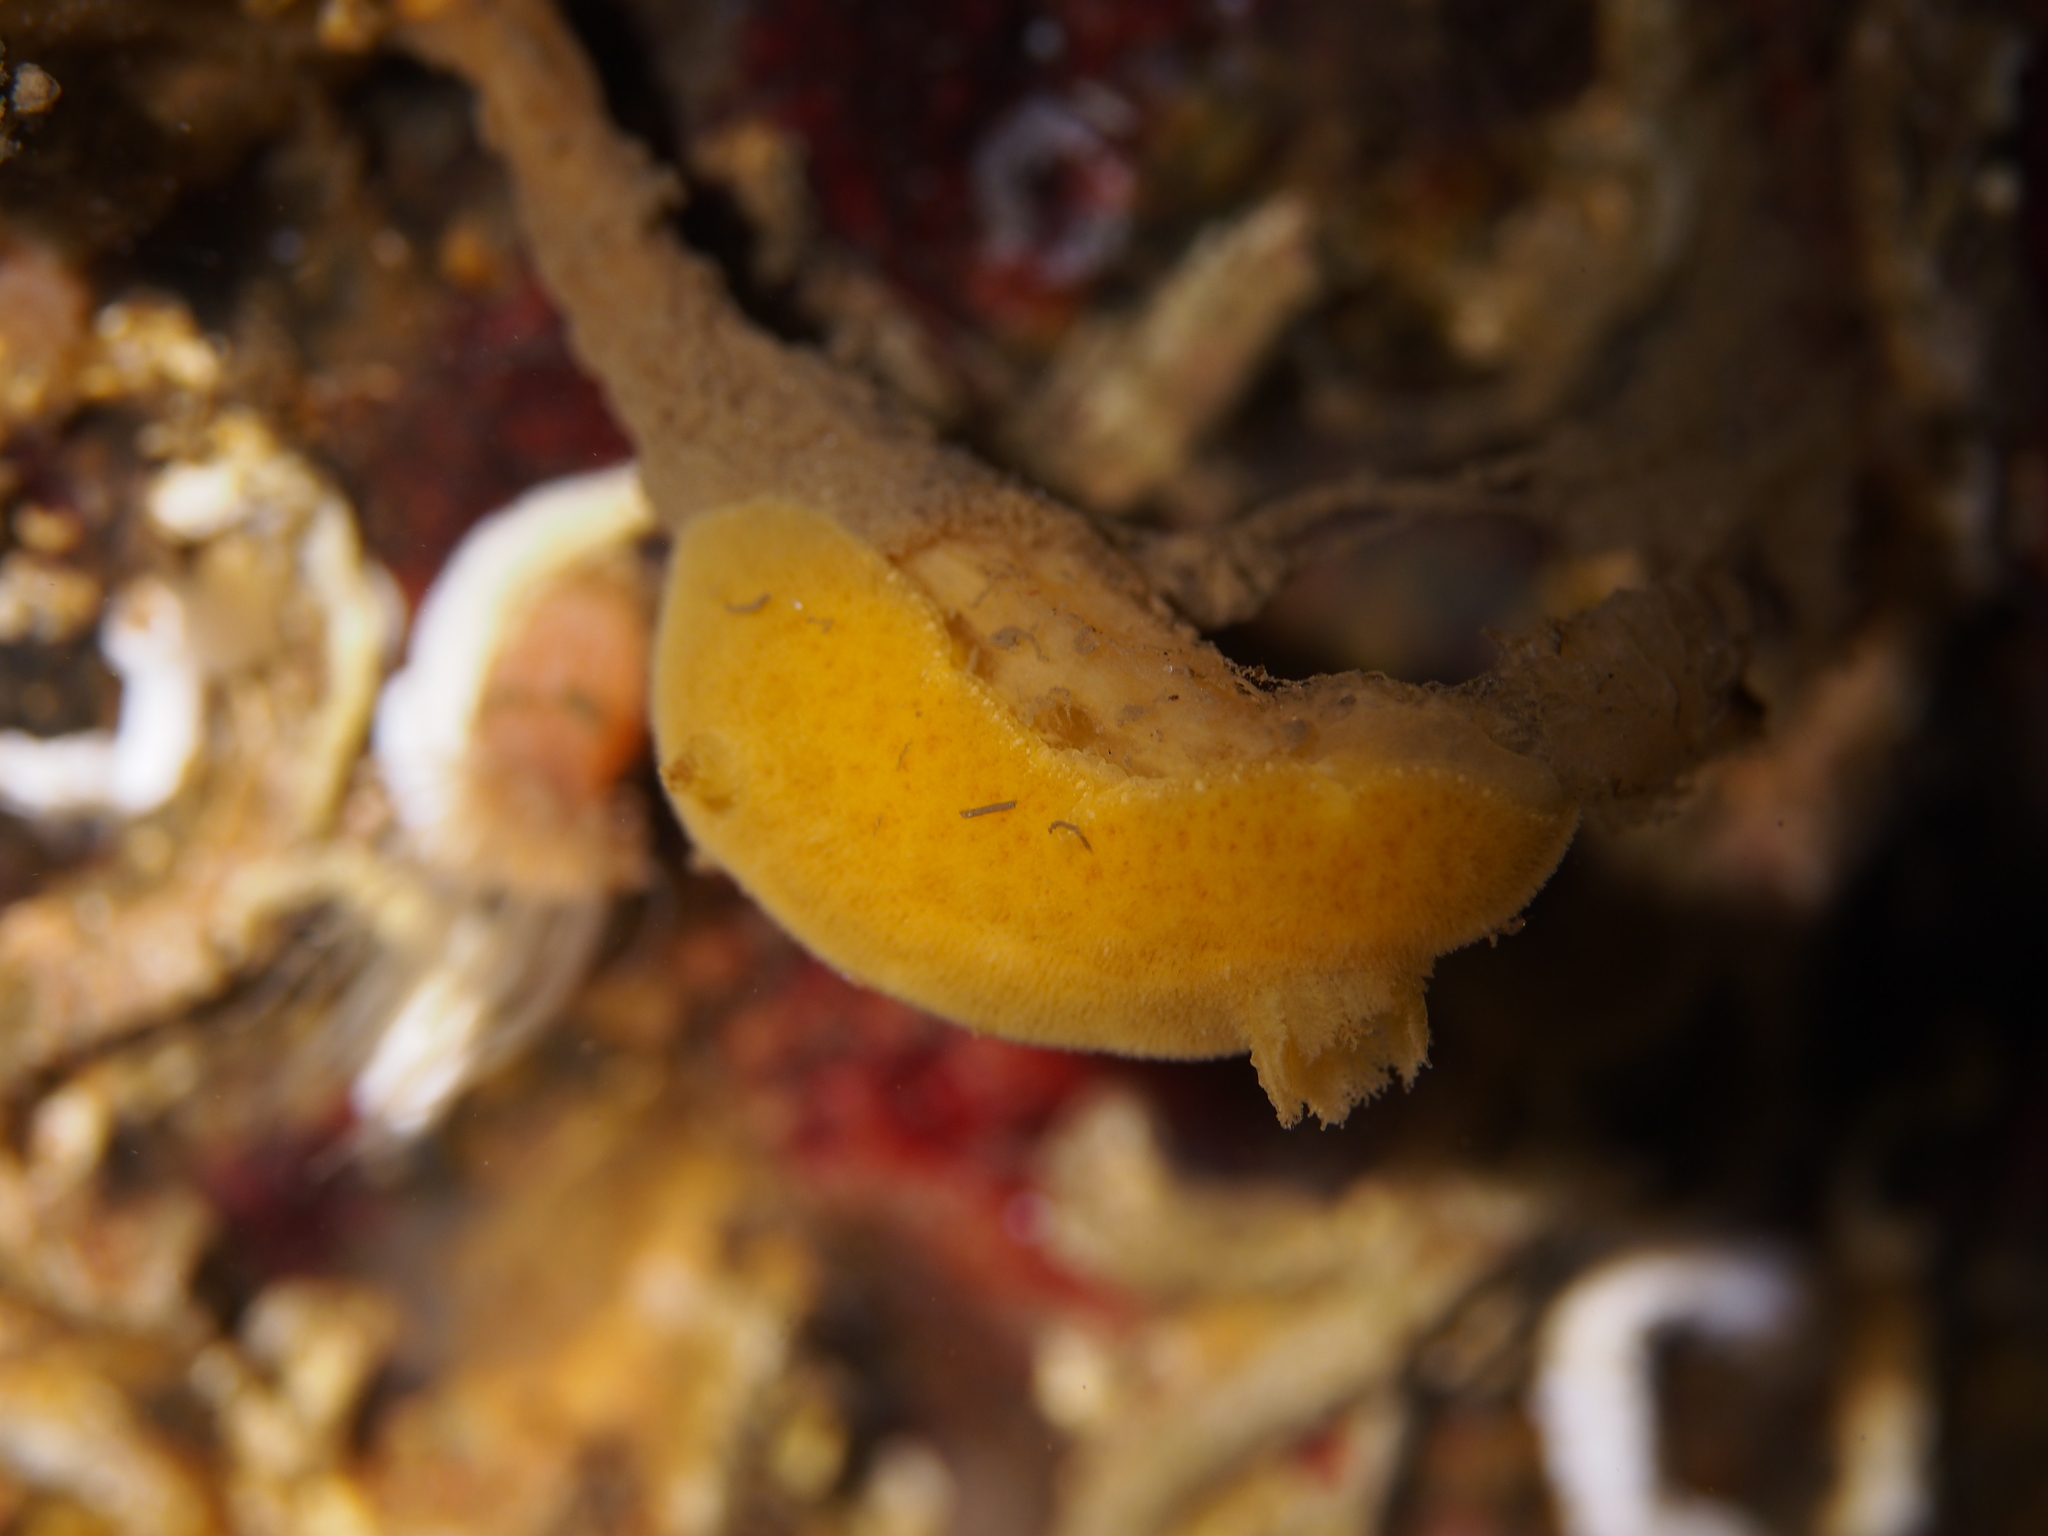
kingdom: Animalia
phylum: Mollusca
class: Gastropoda
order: Nudibranchia
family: Discodorididae
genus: Jorunna
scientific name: Jorunna tomentosa
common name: Grey sea slug
